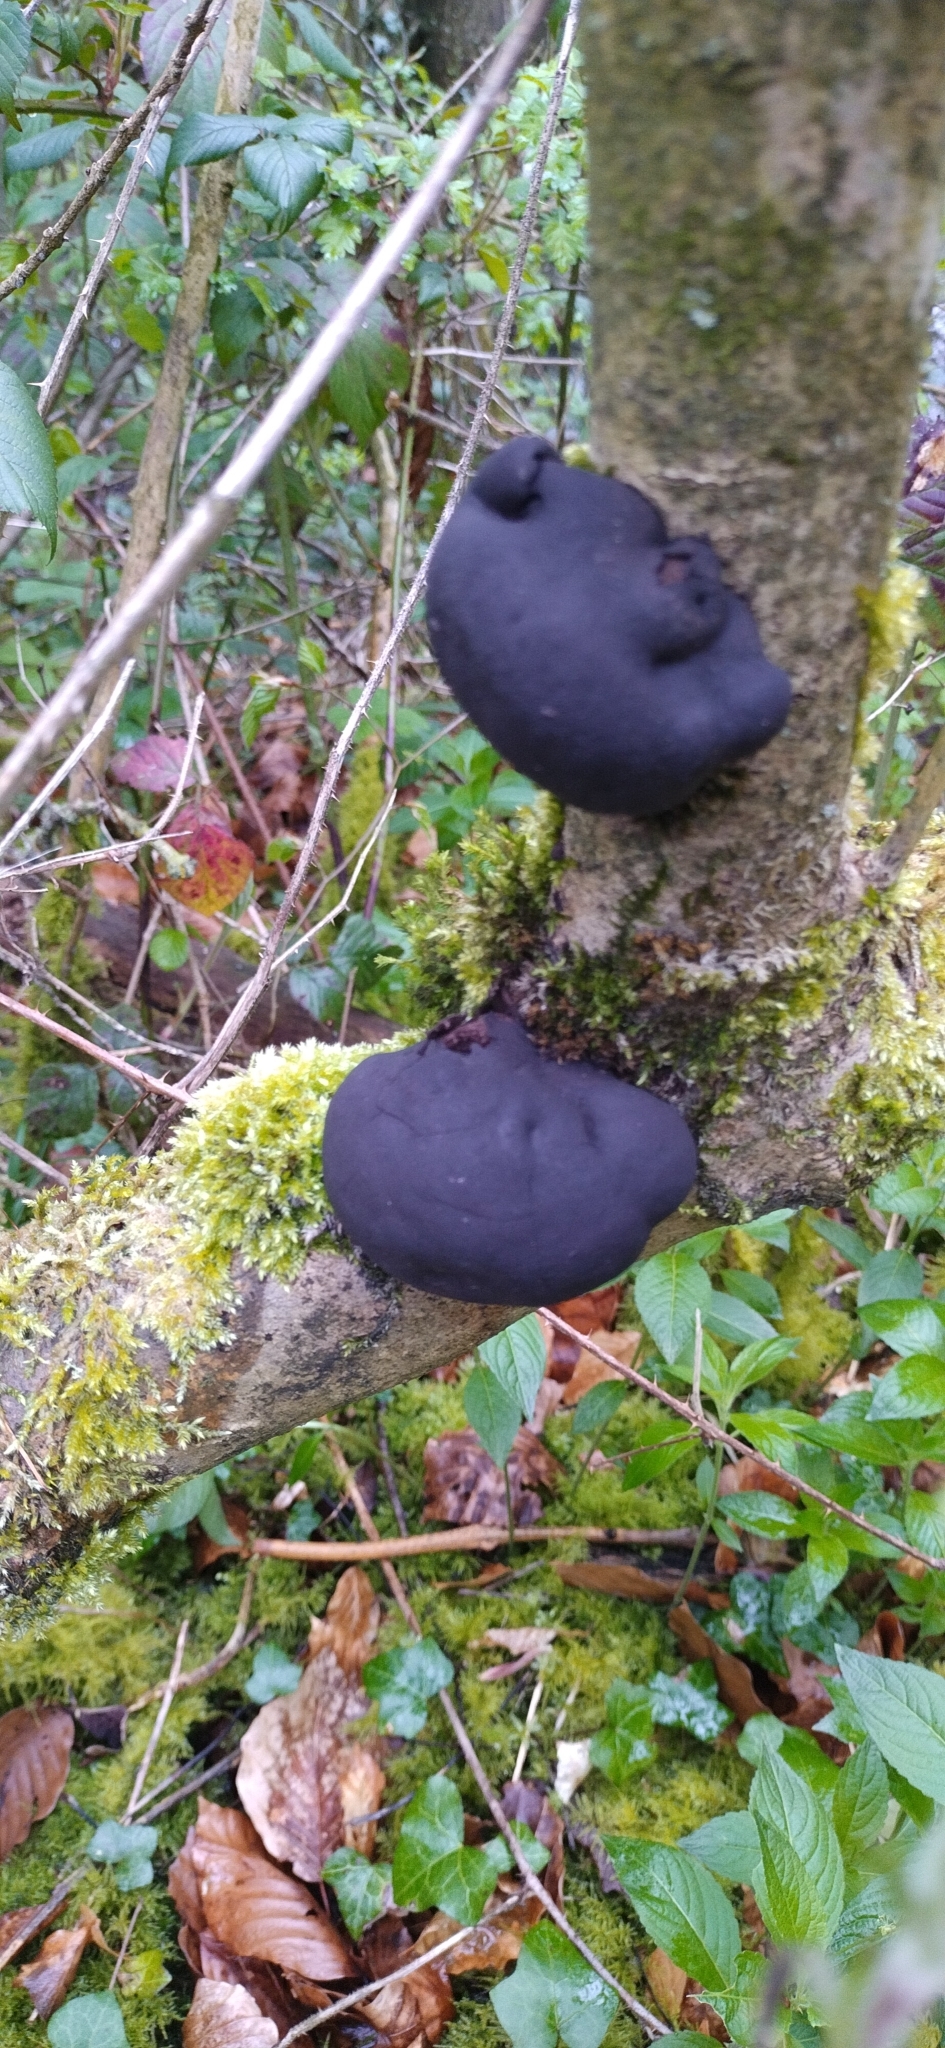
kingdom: Fungi
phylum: Ascomycota
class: Sordariomycetes
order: Xylariales
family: Hypoxylaceae
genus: Daldinia
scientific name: Daldinia concentrica
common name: Cramp balls
